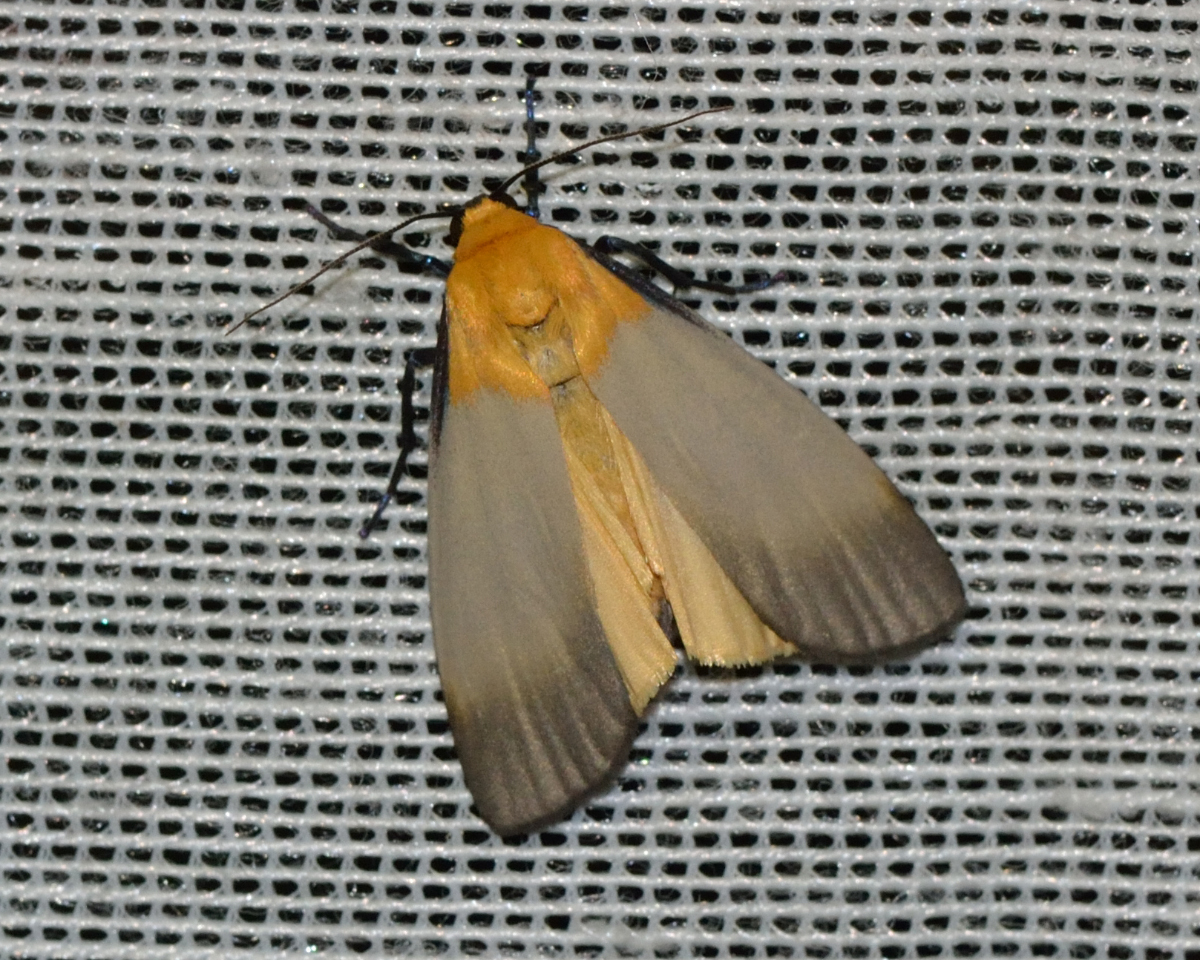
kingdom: Animalia
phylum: Arthropoda
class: Insecta
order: Lepidoptera
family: Erebidae
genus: Lithosia
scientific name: Lithosia quadra
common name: Four-spotted footman
